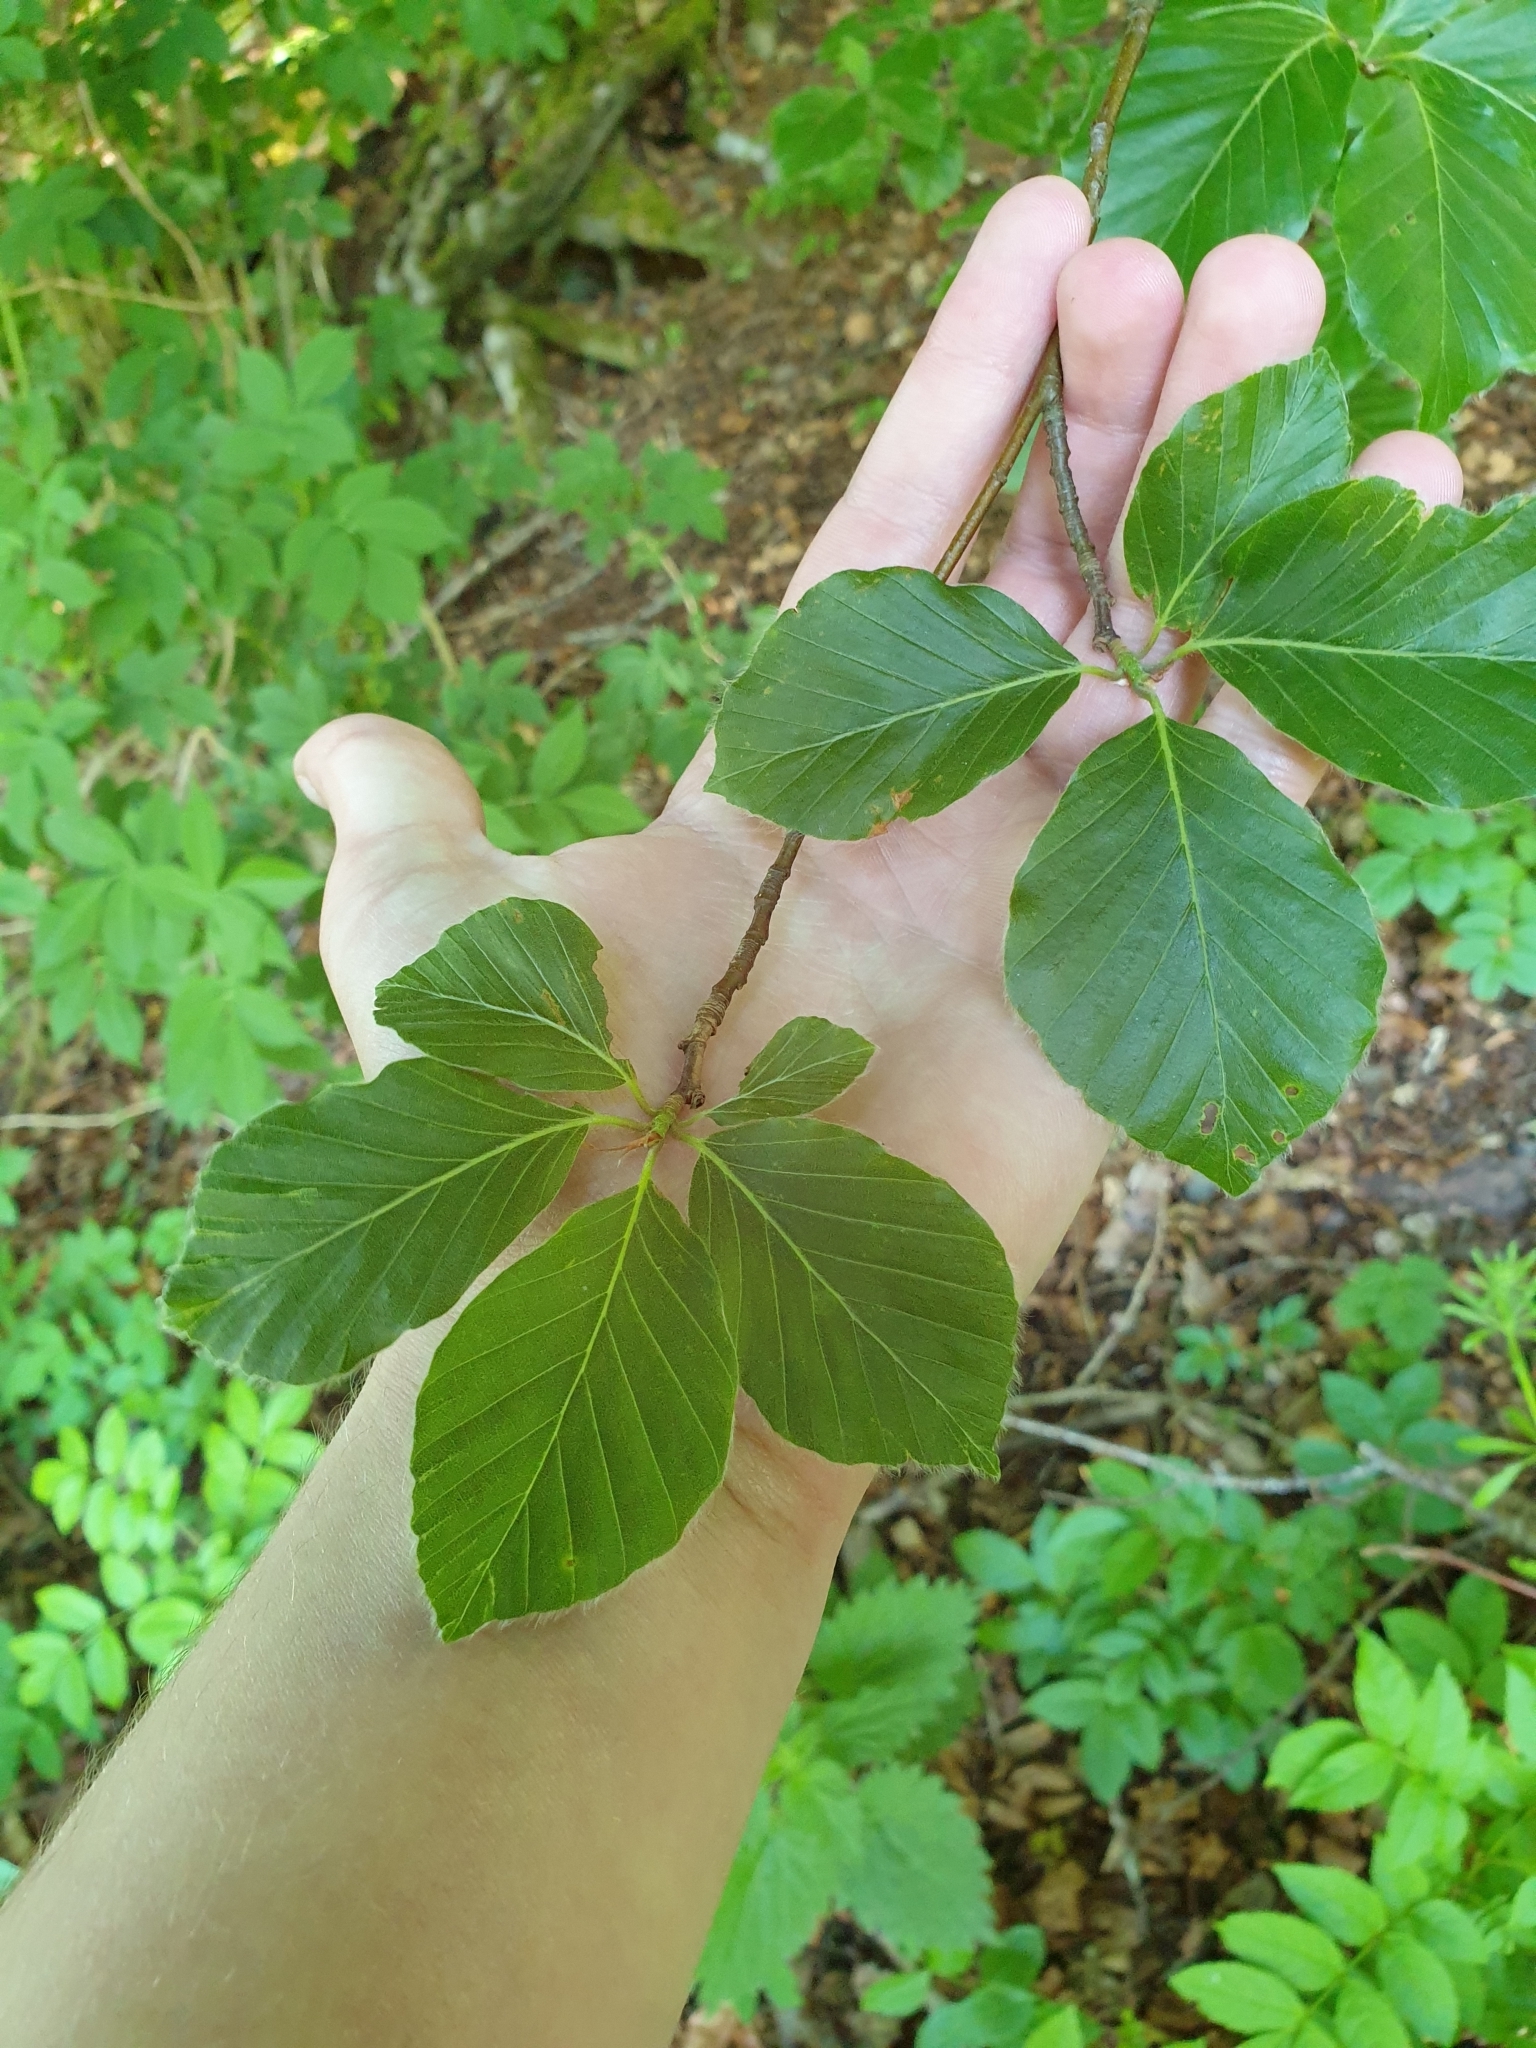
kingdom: Plantae
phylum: Tracheophyta
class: Magnoliopsida
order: Fagales
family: Fagaceae
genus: Fagus
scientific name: Fagus sylvatica
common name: Beech
